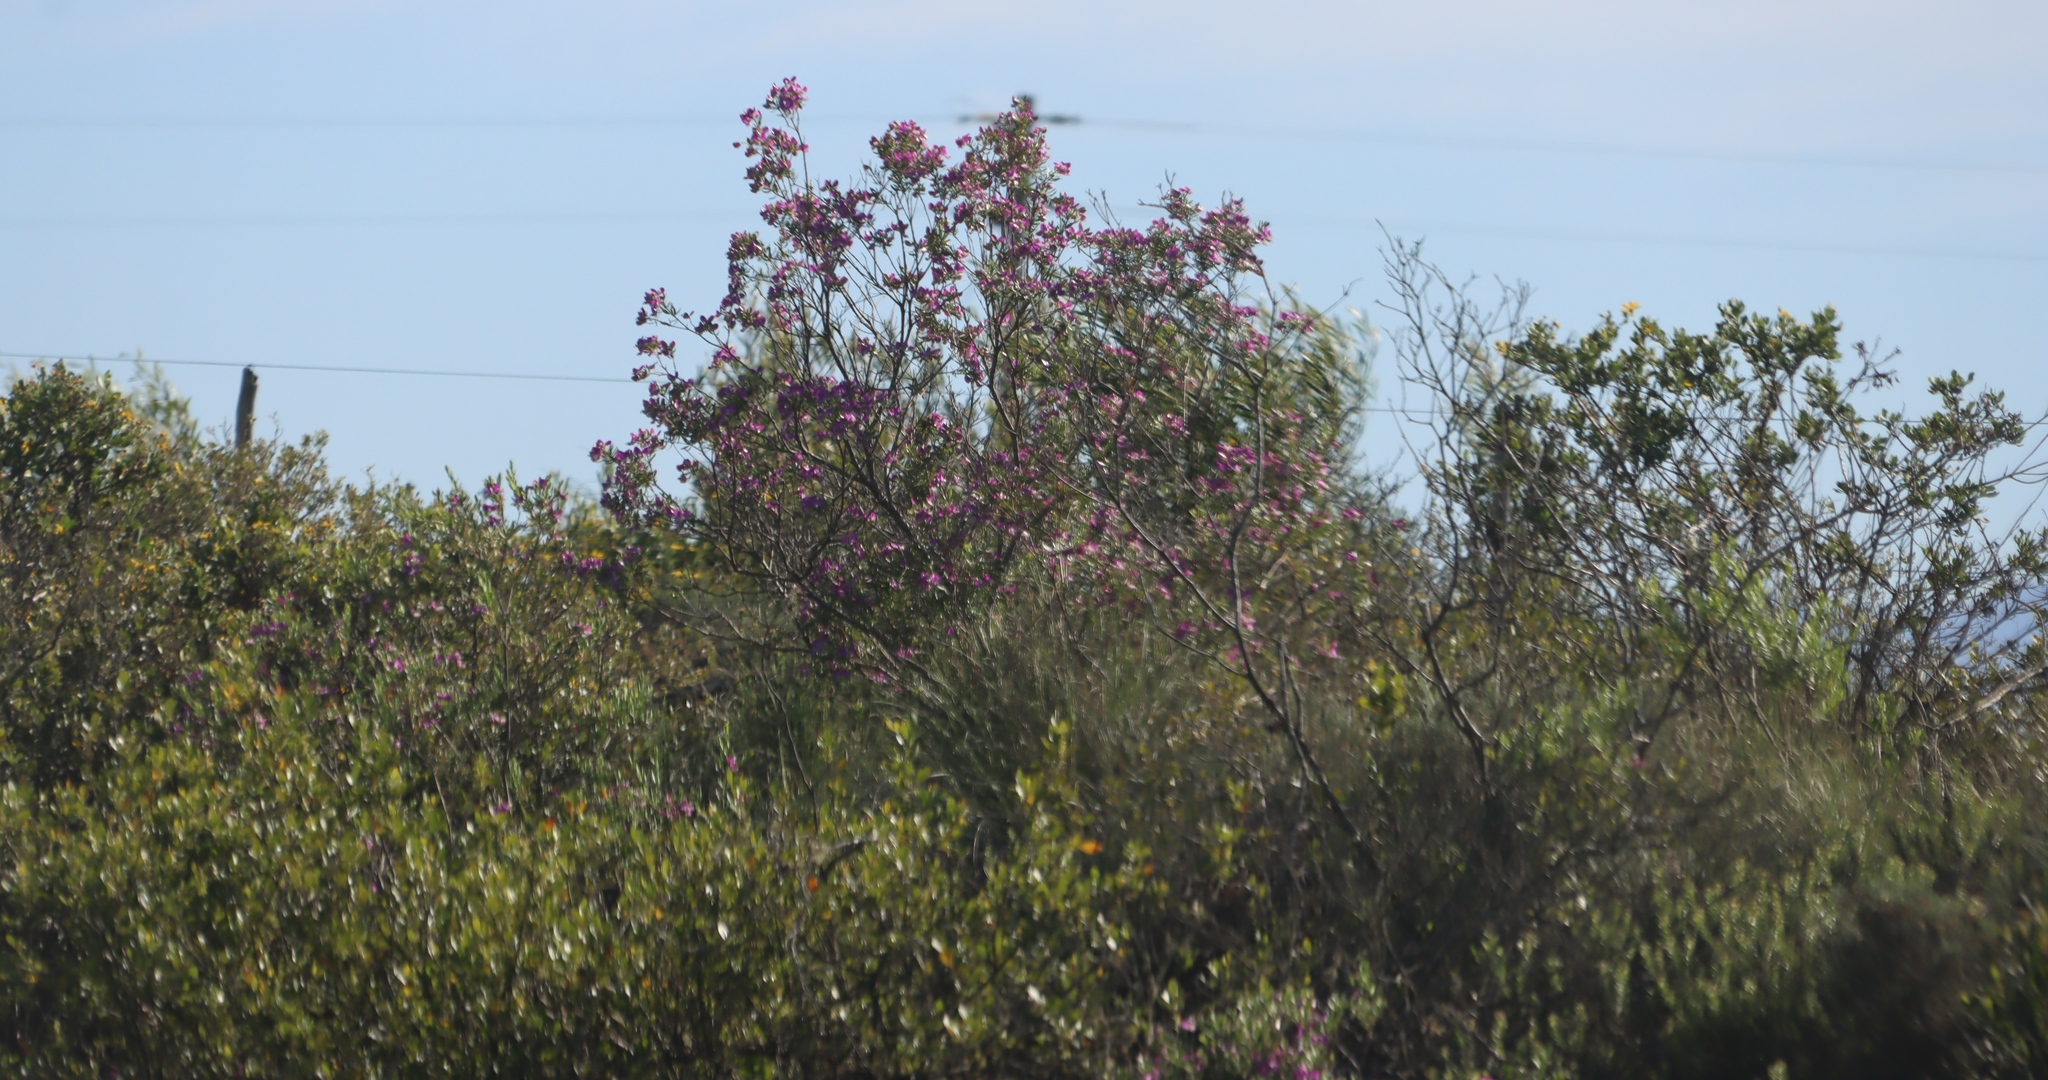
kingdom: Plantae
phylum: Tracheophyta
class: Magnoliopsida
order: Fabales
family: Polygalaceae
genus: Polygala
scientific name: Polygala myrtifolia
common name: Myrtle-leaf milkwort
